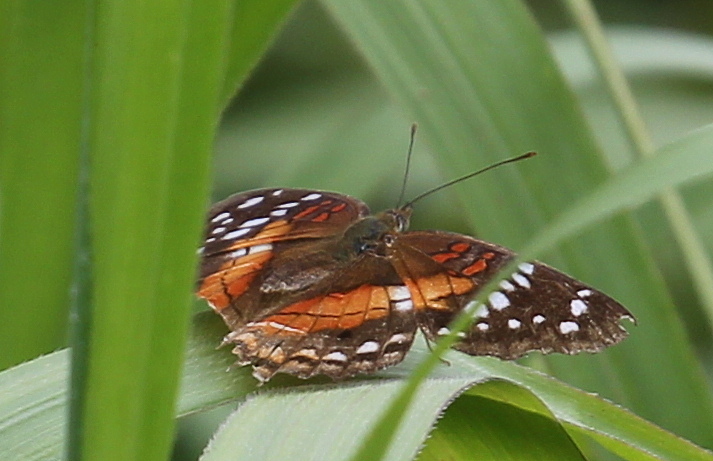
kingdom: Animalia
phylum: Arthropoda
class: Insecta
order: Lepidoptera
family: Nymphalidae
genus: Anartia
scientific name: Anartia amathea
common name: Red peacock
